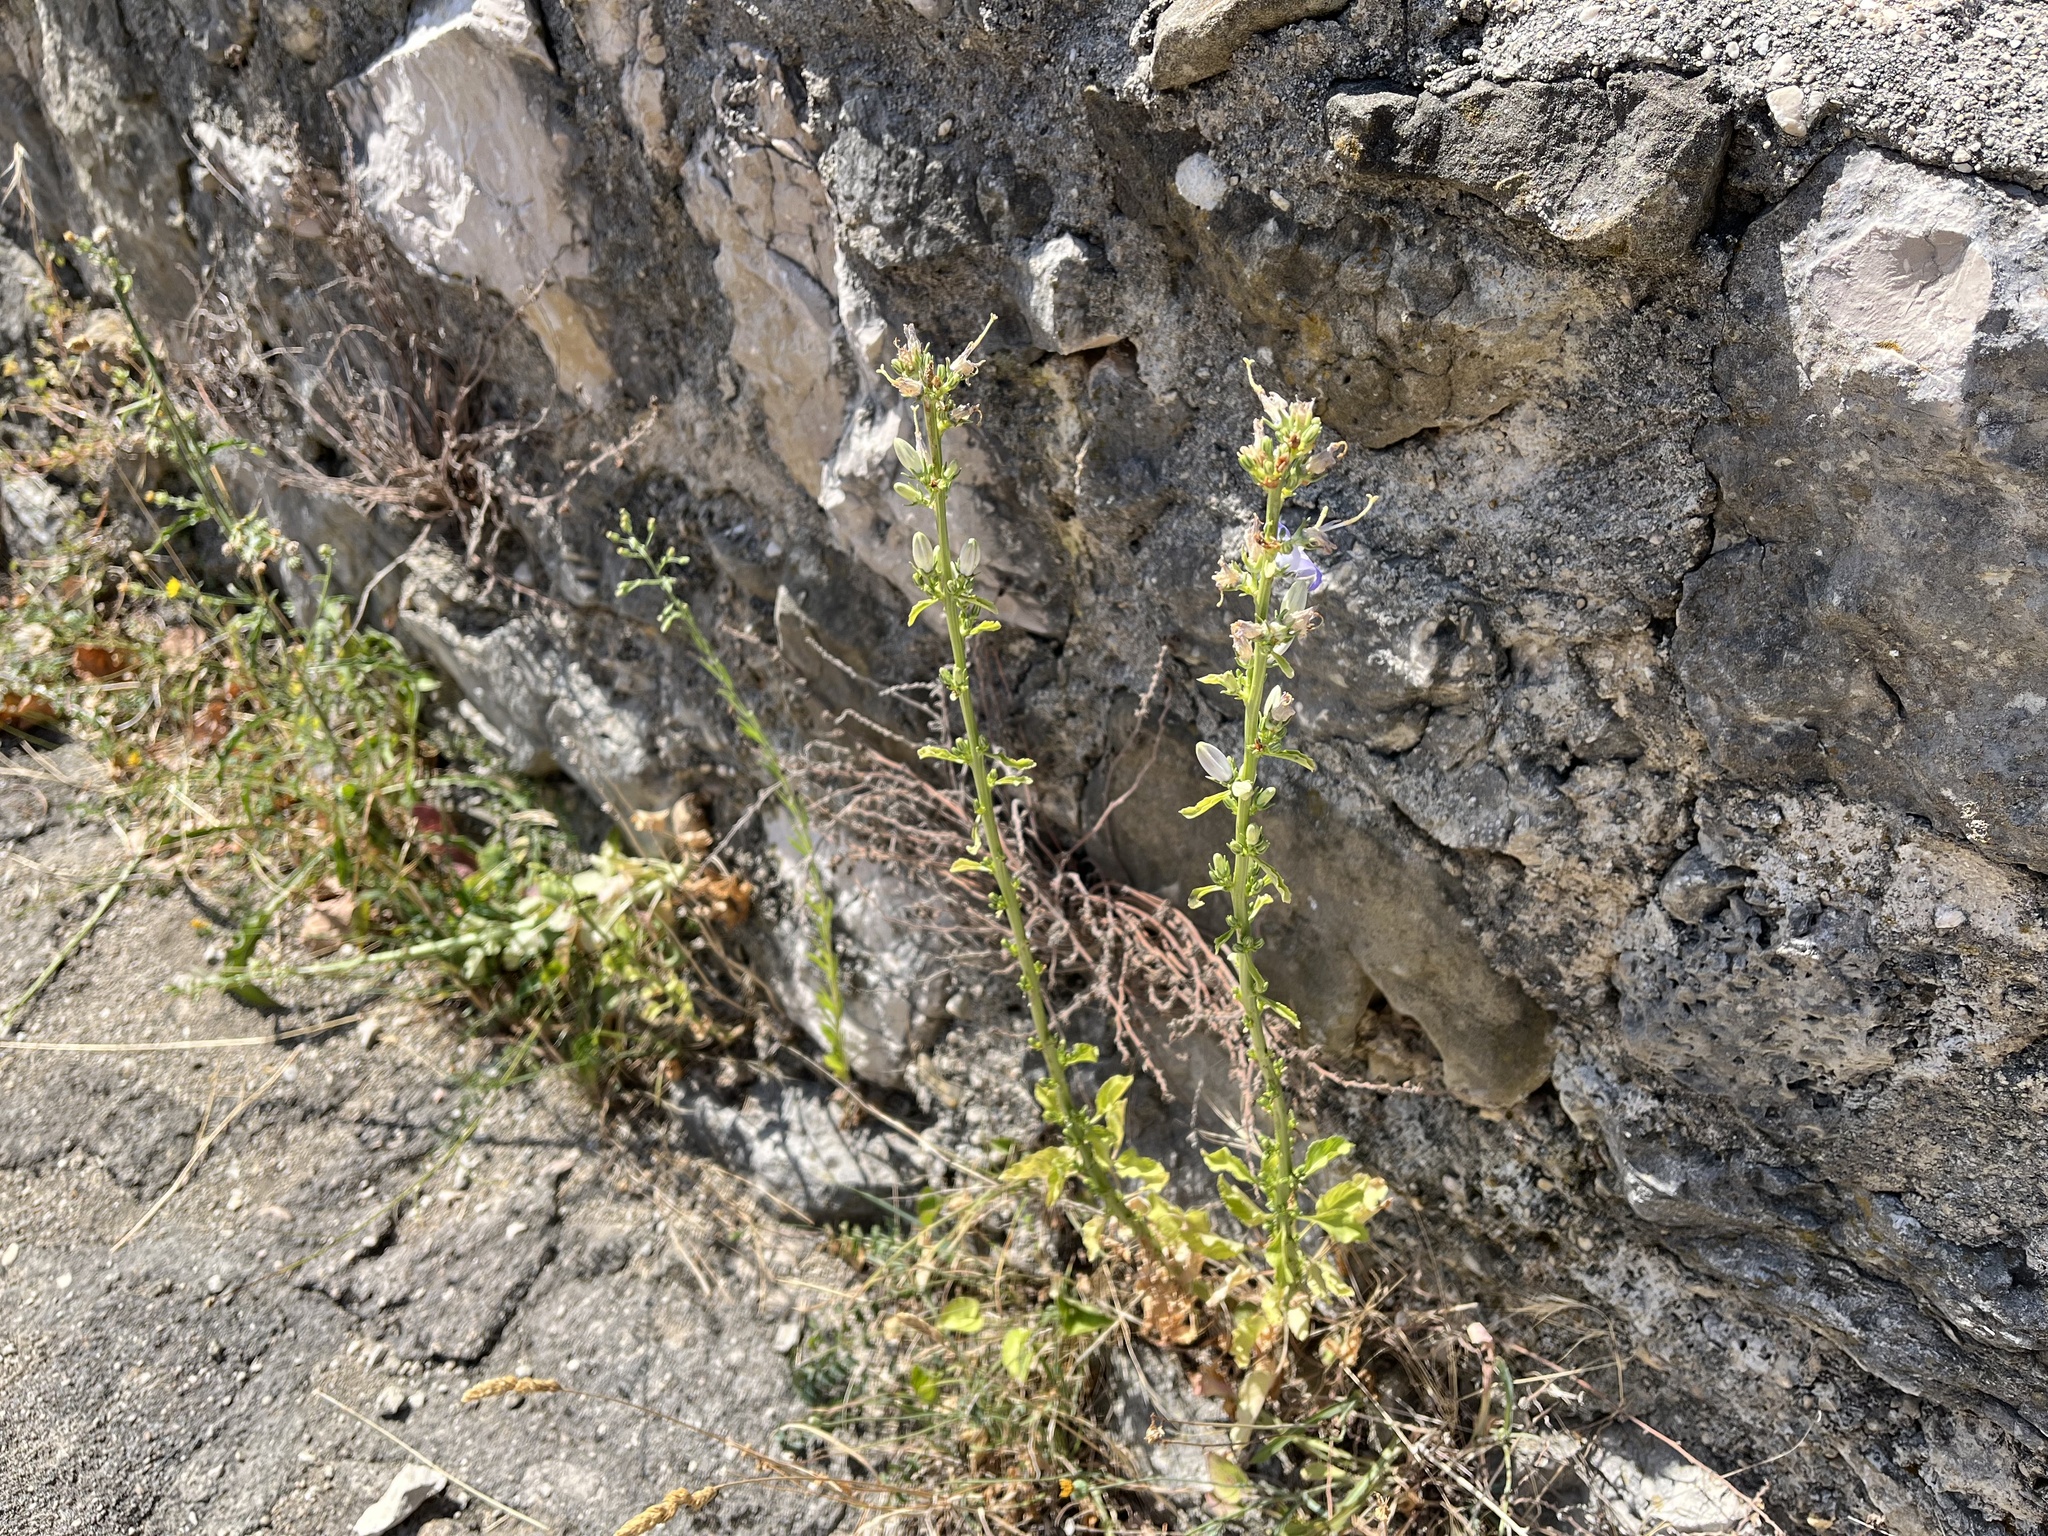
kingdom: Plantae
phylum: Tracheophyta
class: Magnoliopsida
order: Asterales
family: Campanulaceae
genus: Campanula
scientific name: Campanula pyramidalis
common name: Chimney bellflower
